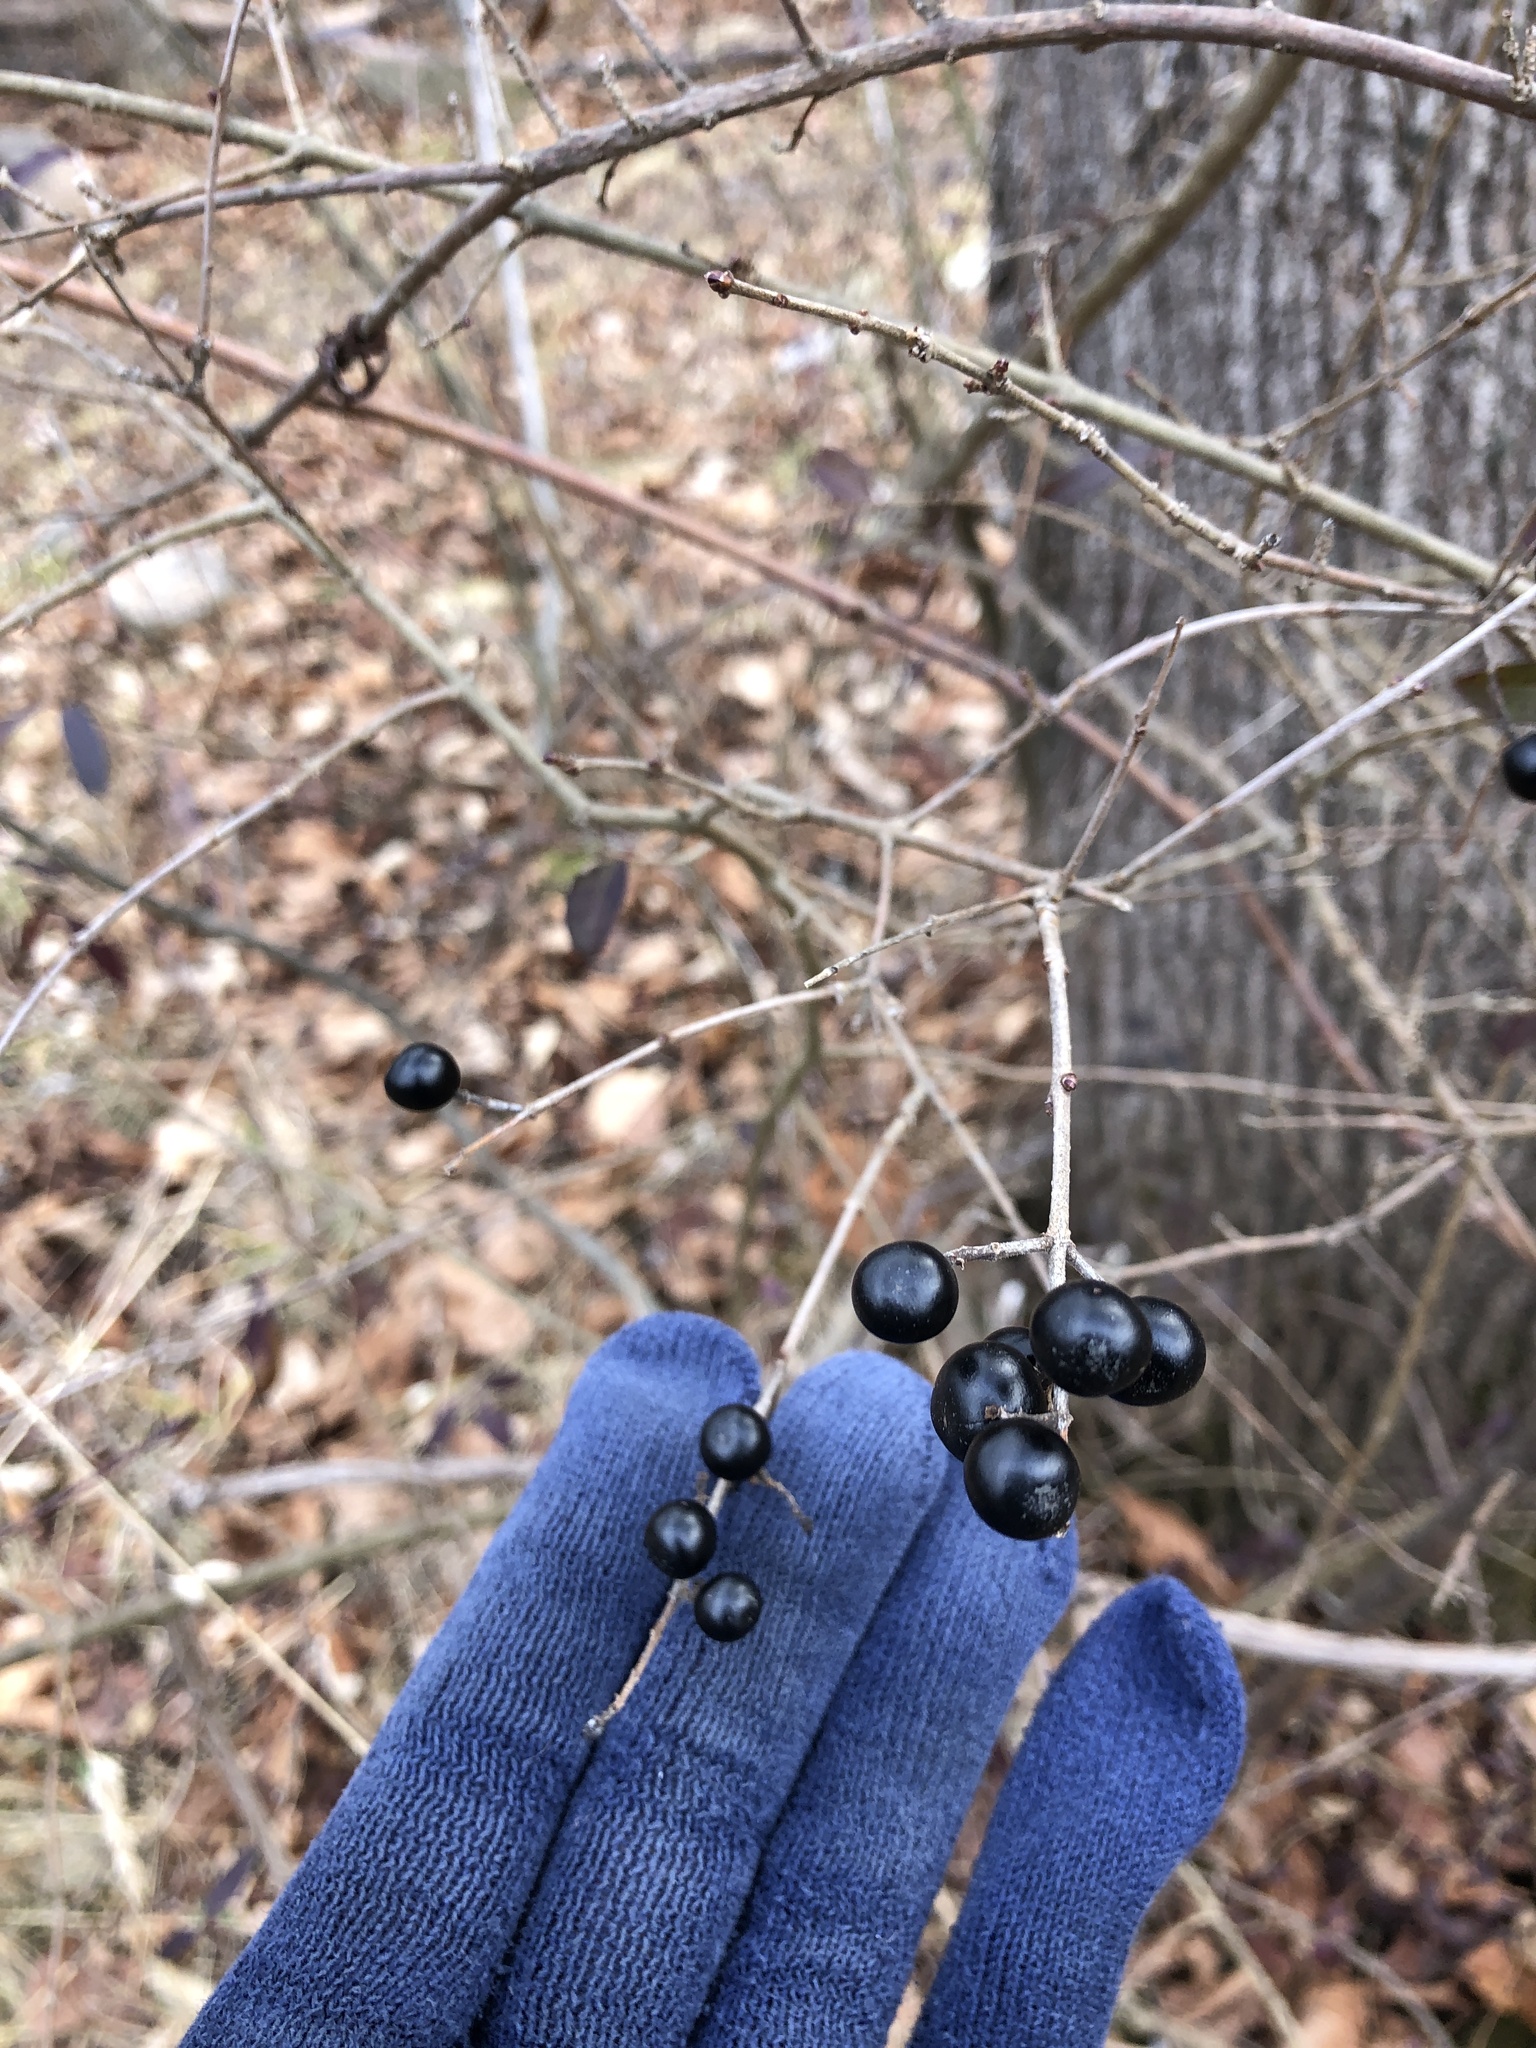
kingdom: Plantae
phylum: Tracheophyta
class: Magnoliopsida
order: Lamiales
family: Oleaceae
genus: Ligustrum
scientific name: Ligustrum vulgare
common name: Wild privet
